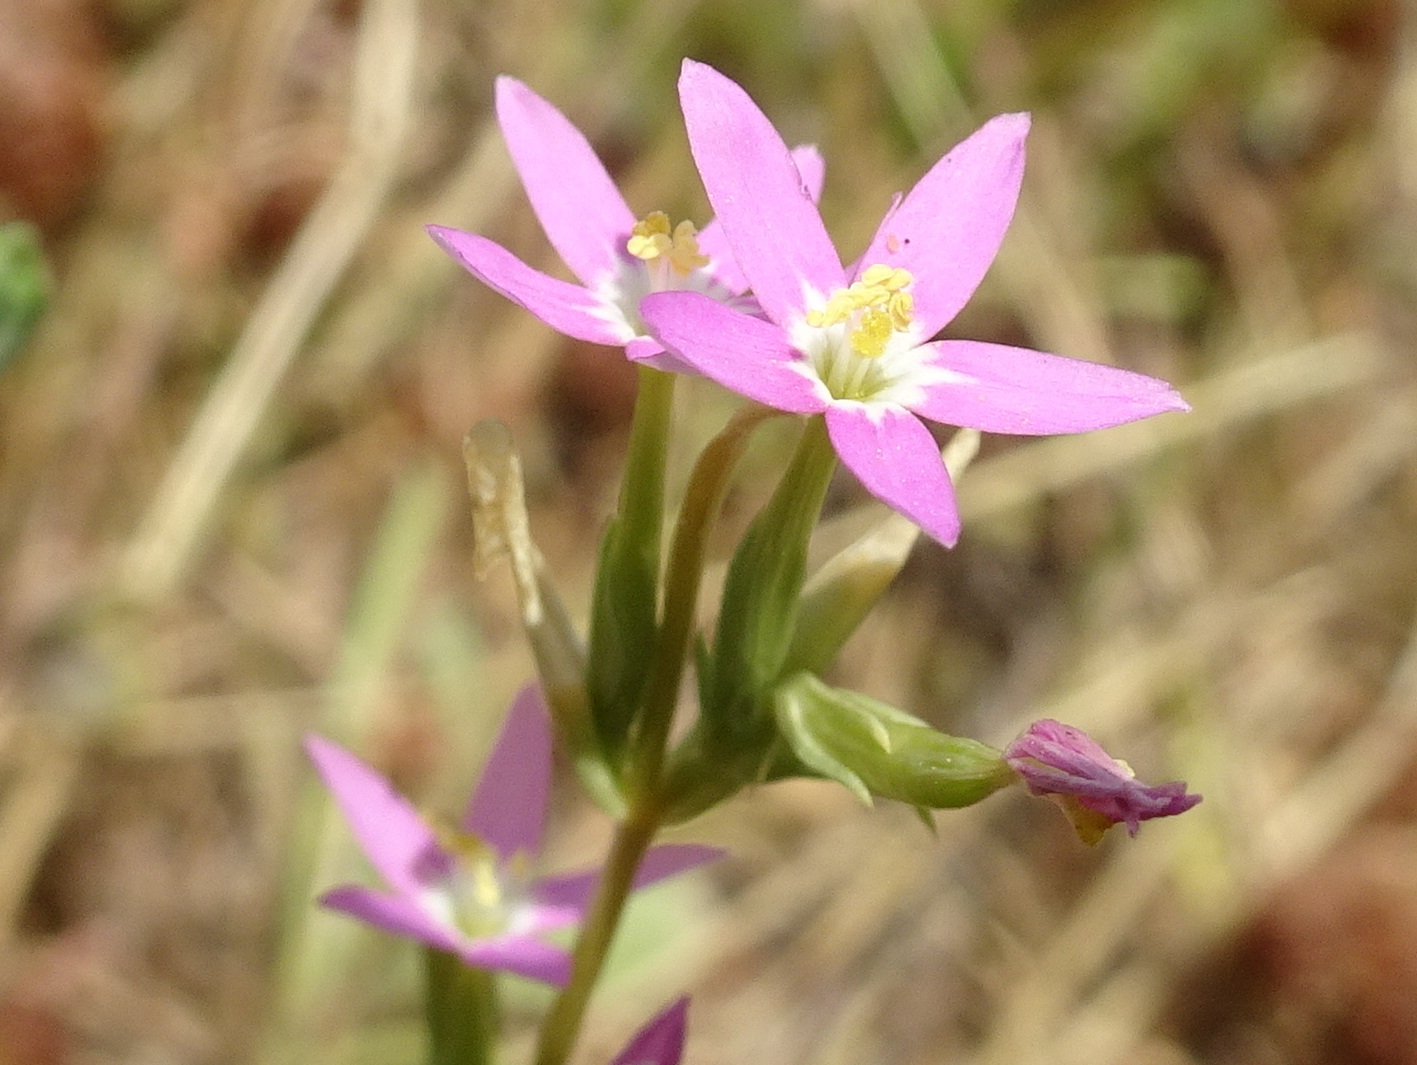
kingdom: Plantae
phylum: Tracheophyta
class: Magnoliopsida
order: Gentianales
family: Gentianaceae
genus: Centaurium
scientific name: Centaurium pulchellum
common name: Lesser centaury
